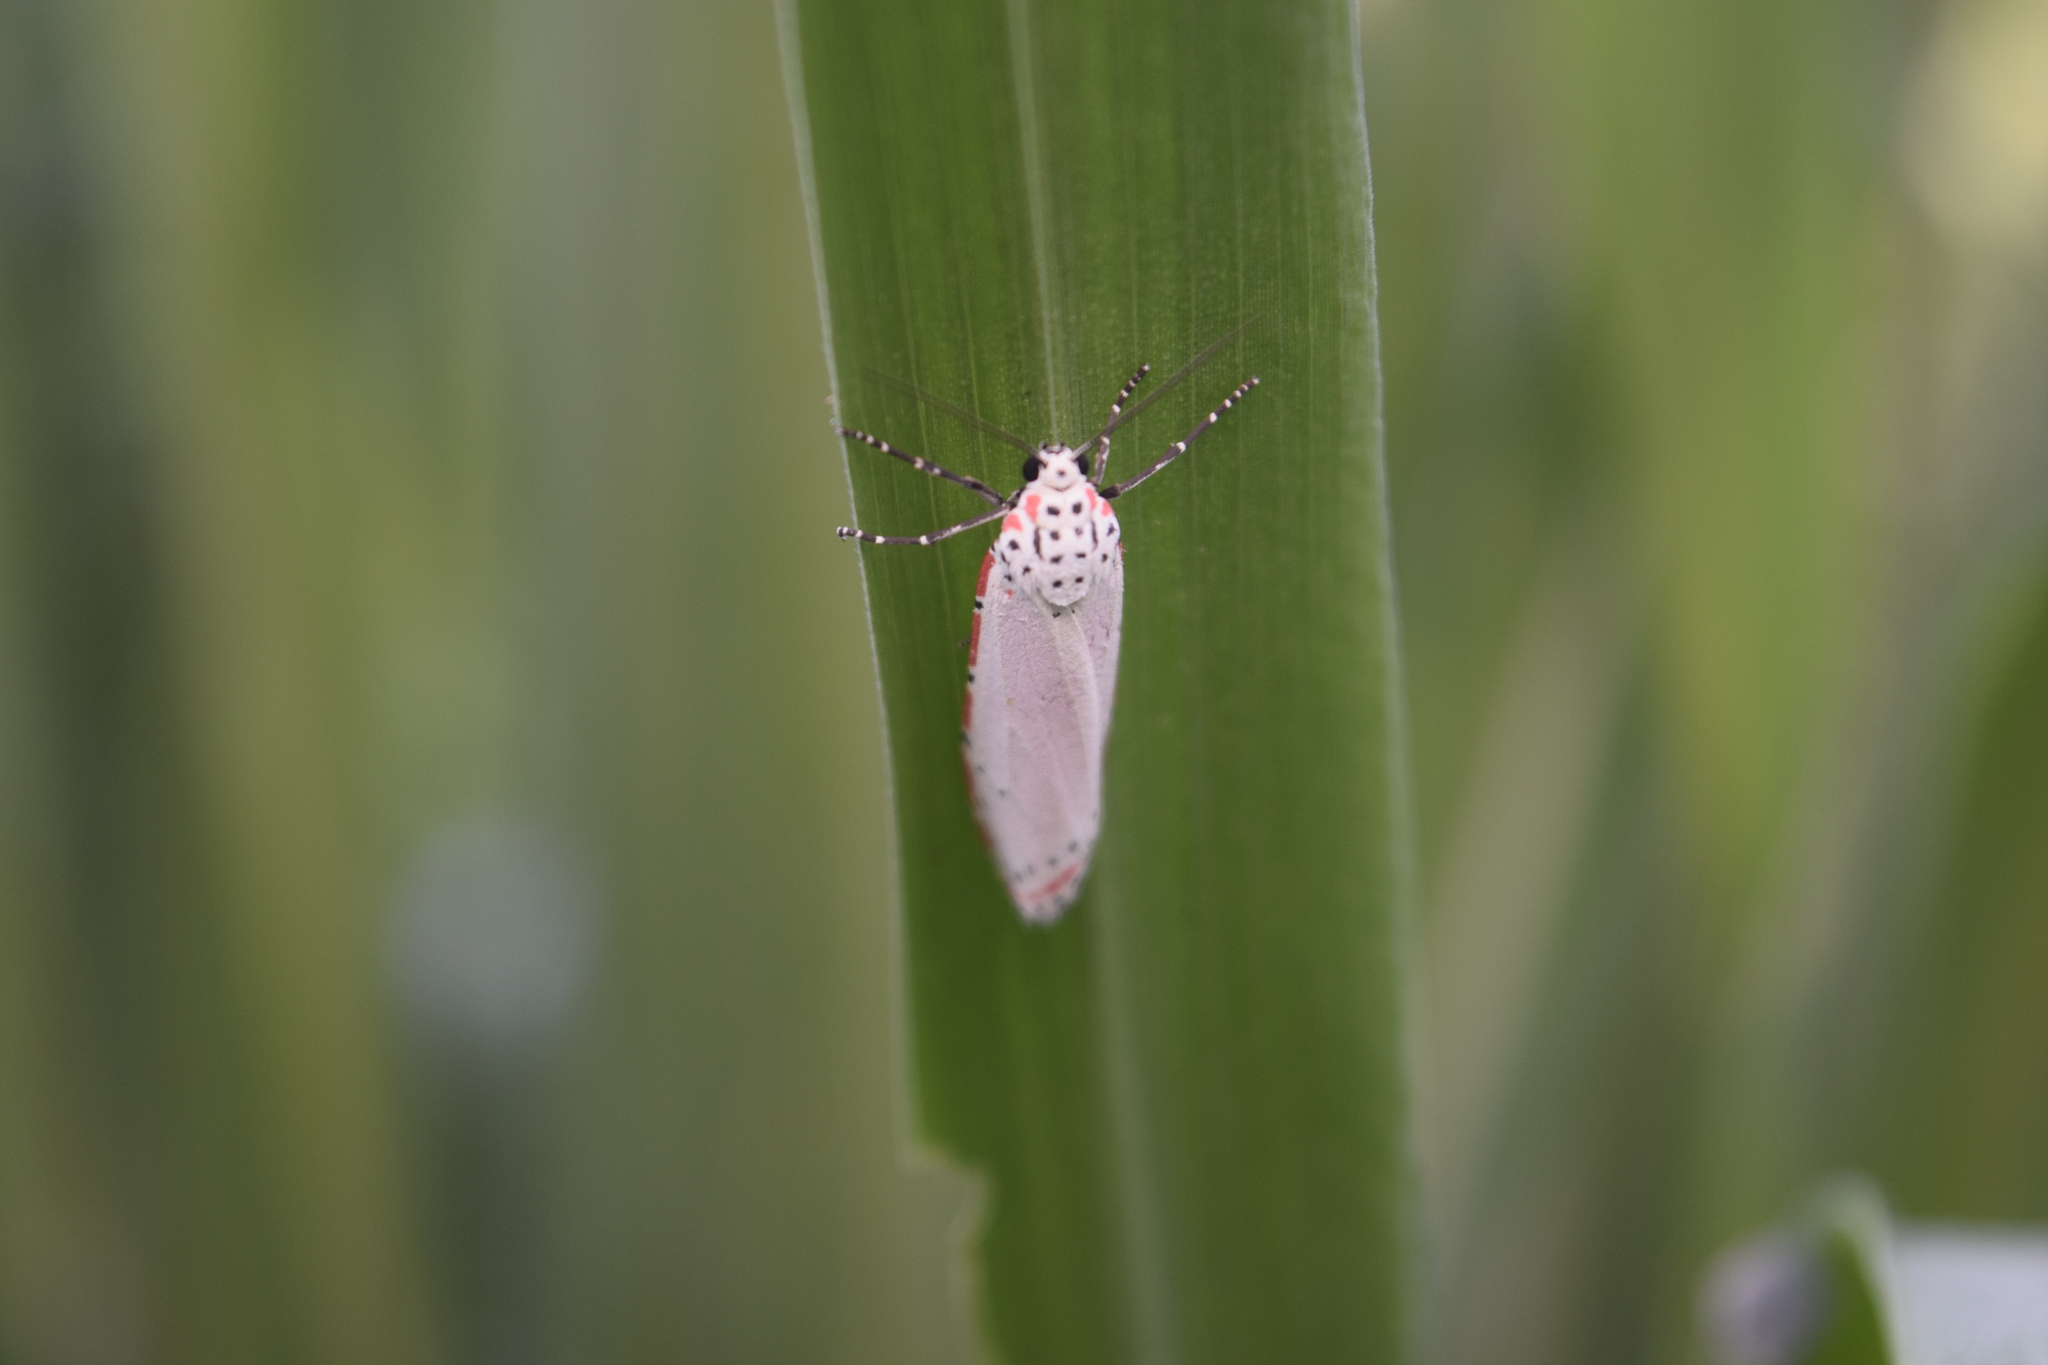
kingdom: Animalia
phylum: Arthropoda
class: Insecta
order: Lepidoptera
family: Erebidae
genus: Utetheisa
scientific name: Utetheisa ornatrix
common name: Beautiful utetheisa
